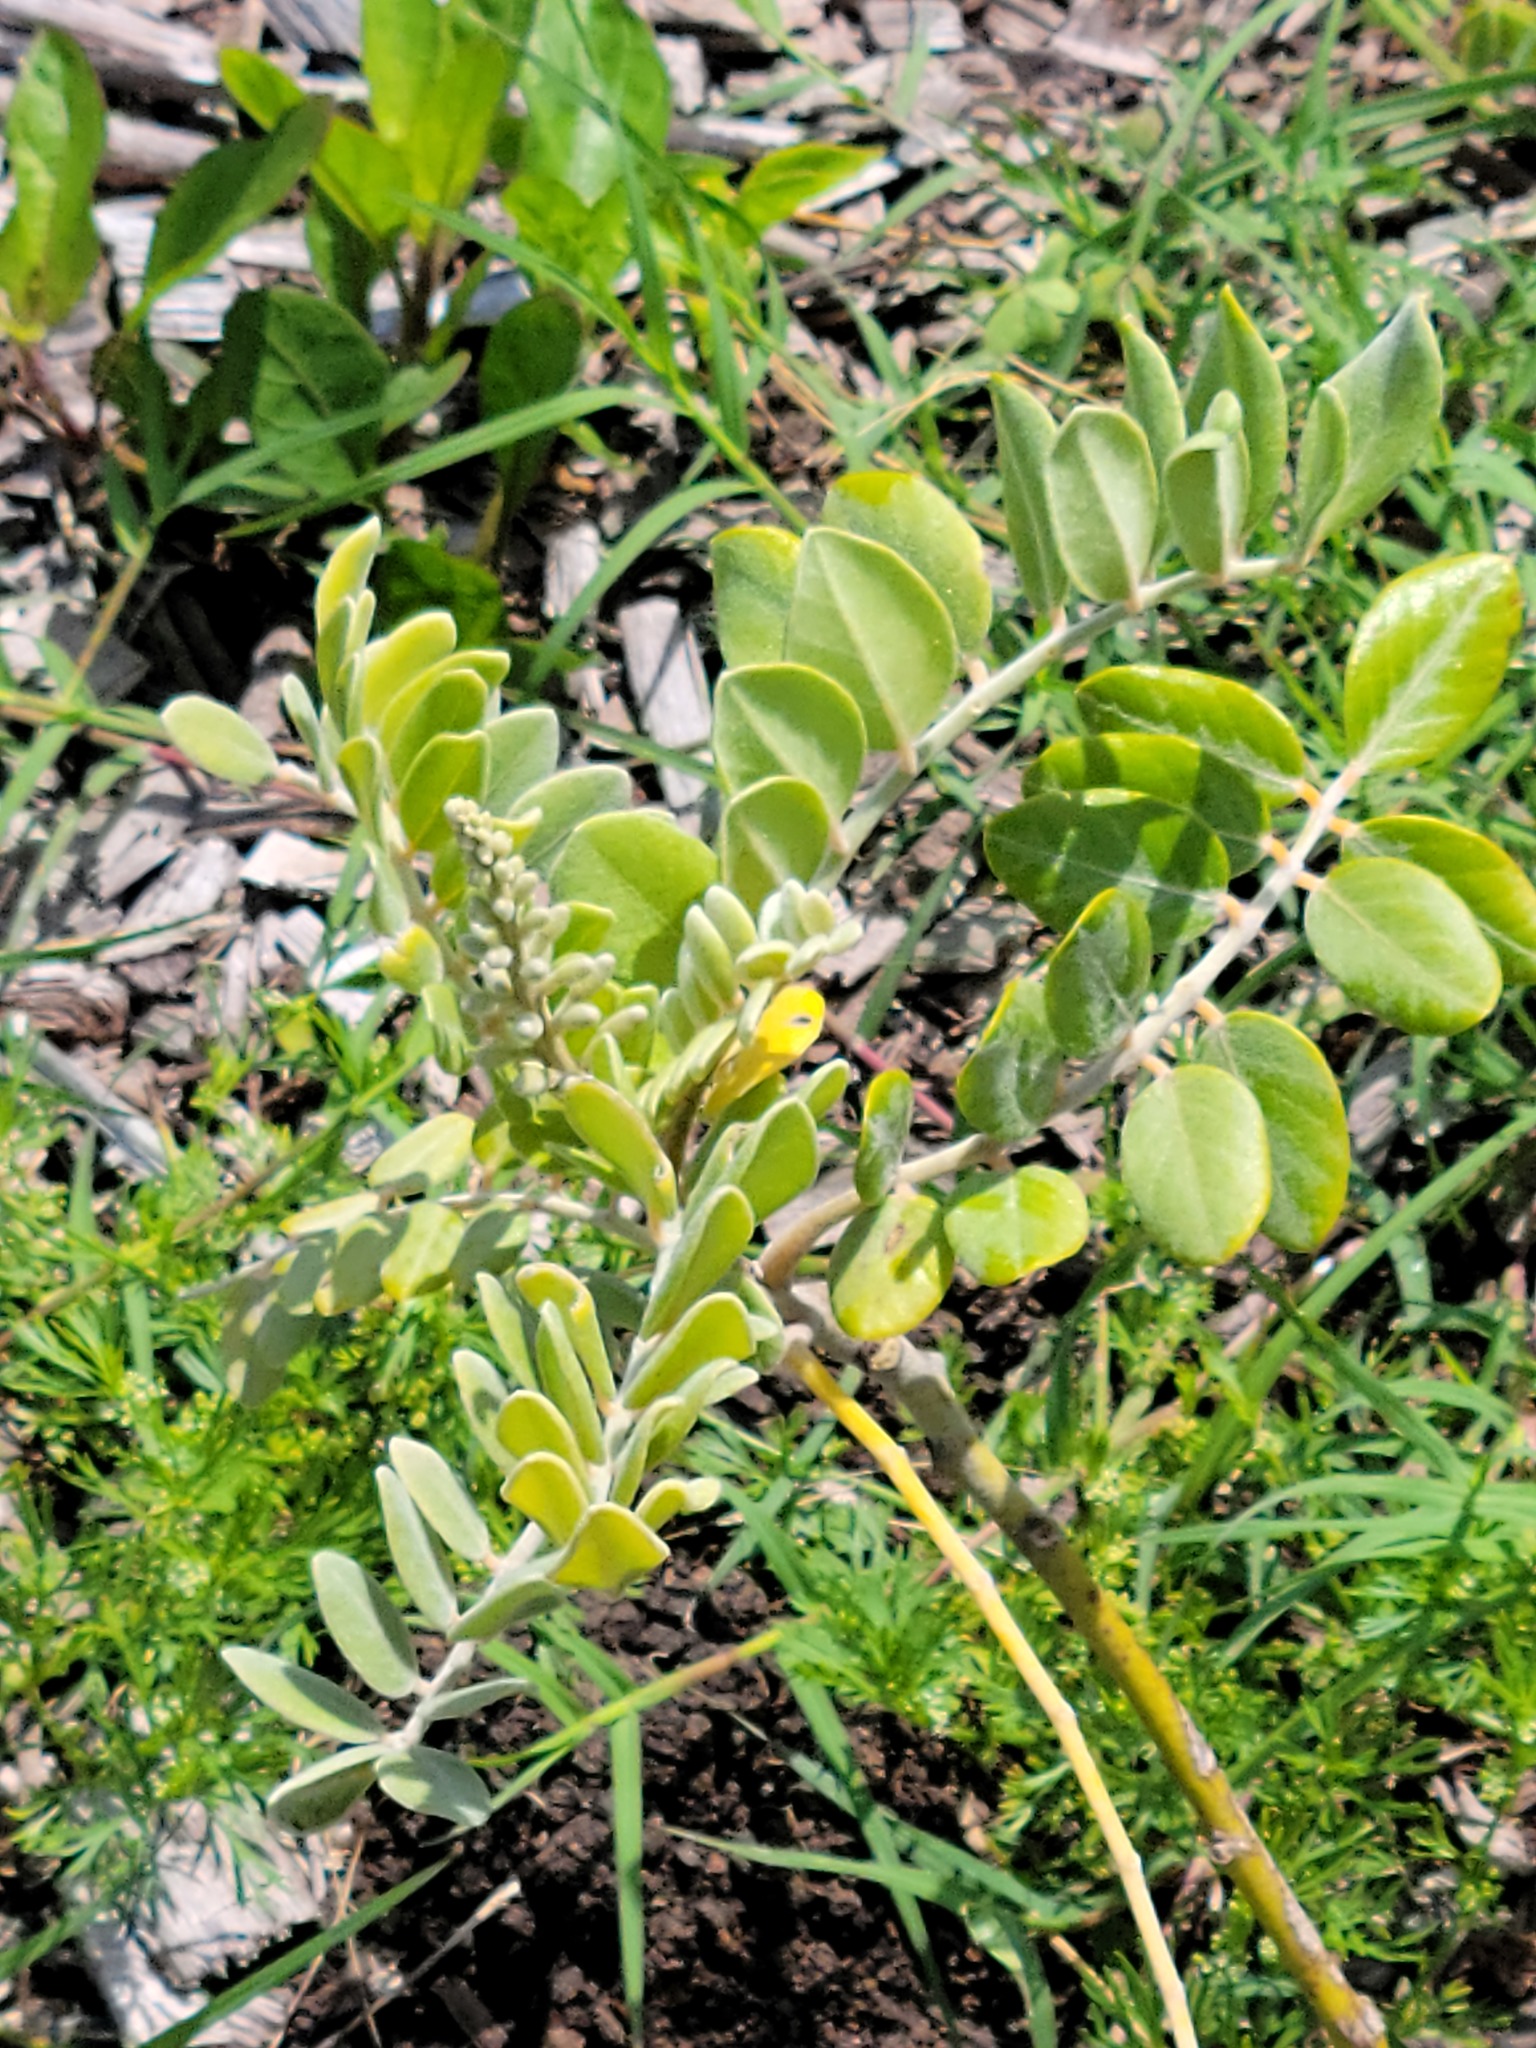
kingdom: Plantae
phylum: Tracheophyta
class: Magnoliopsida
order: Fabales
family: Fabaceae
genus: Sophora
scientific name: Sophora tomentosa
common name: Yellow necklacepod
